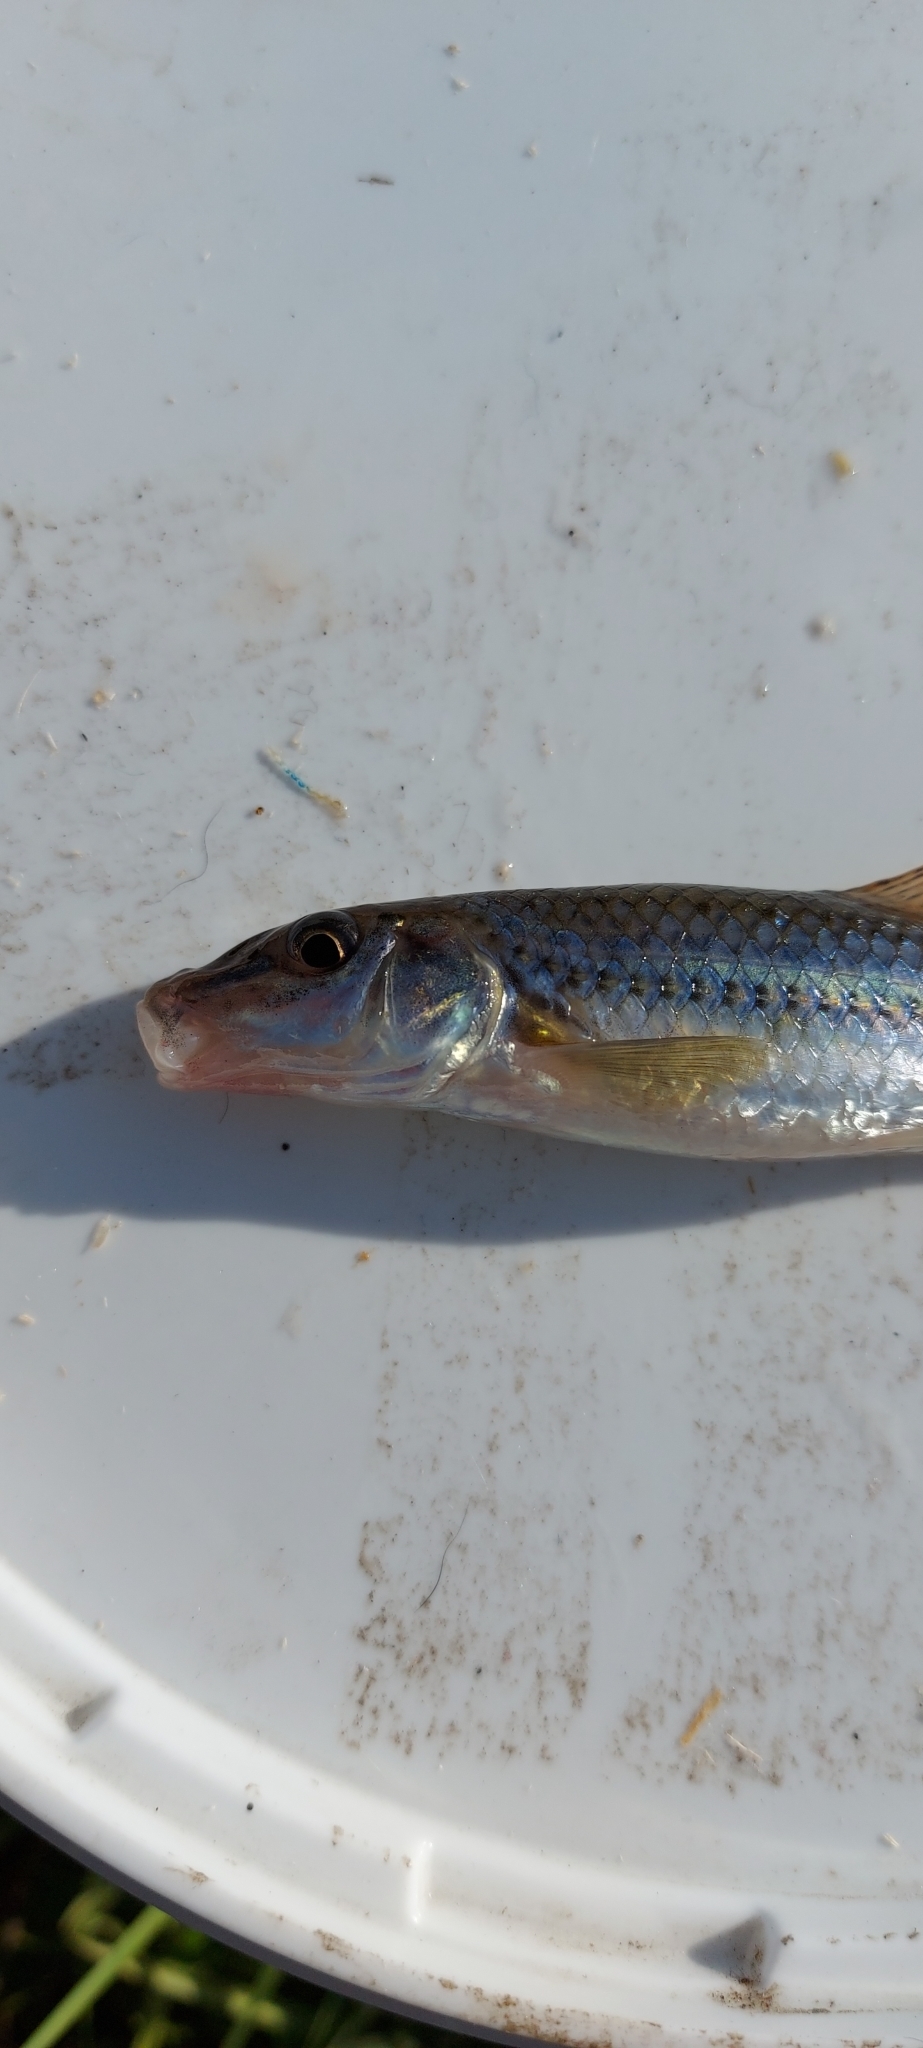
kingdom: Animalia
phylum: Chordata
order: Cypriniformes
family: Cyprinidae
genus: Gobio
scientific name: Gobio brevicirris
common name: Don gudgeon
